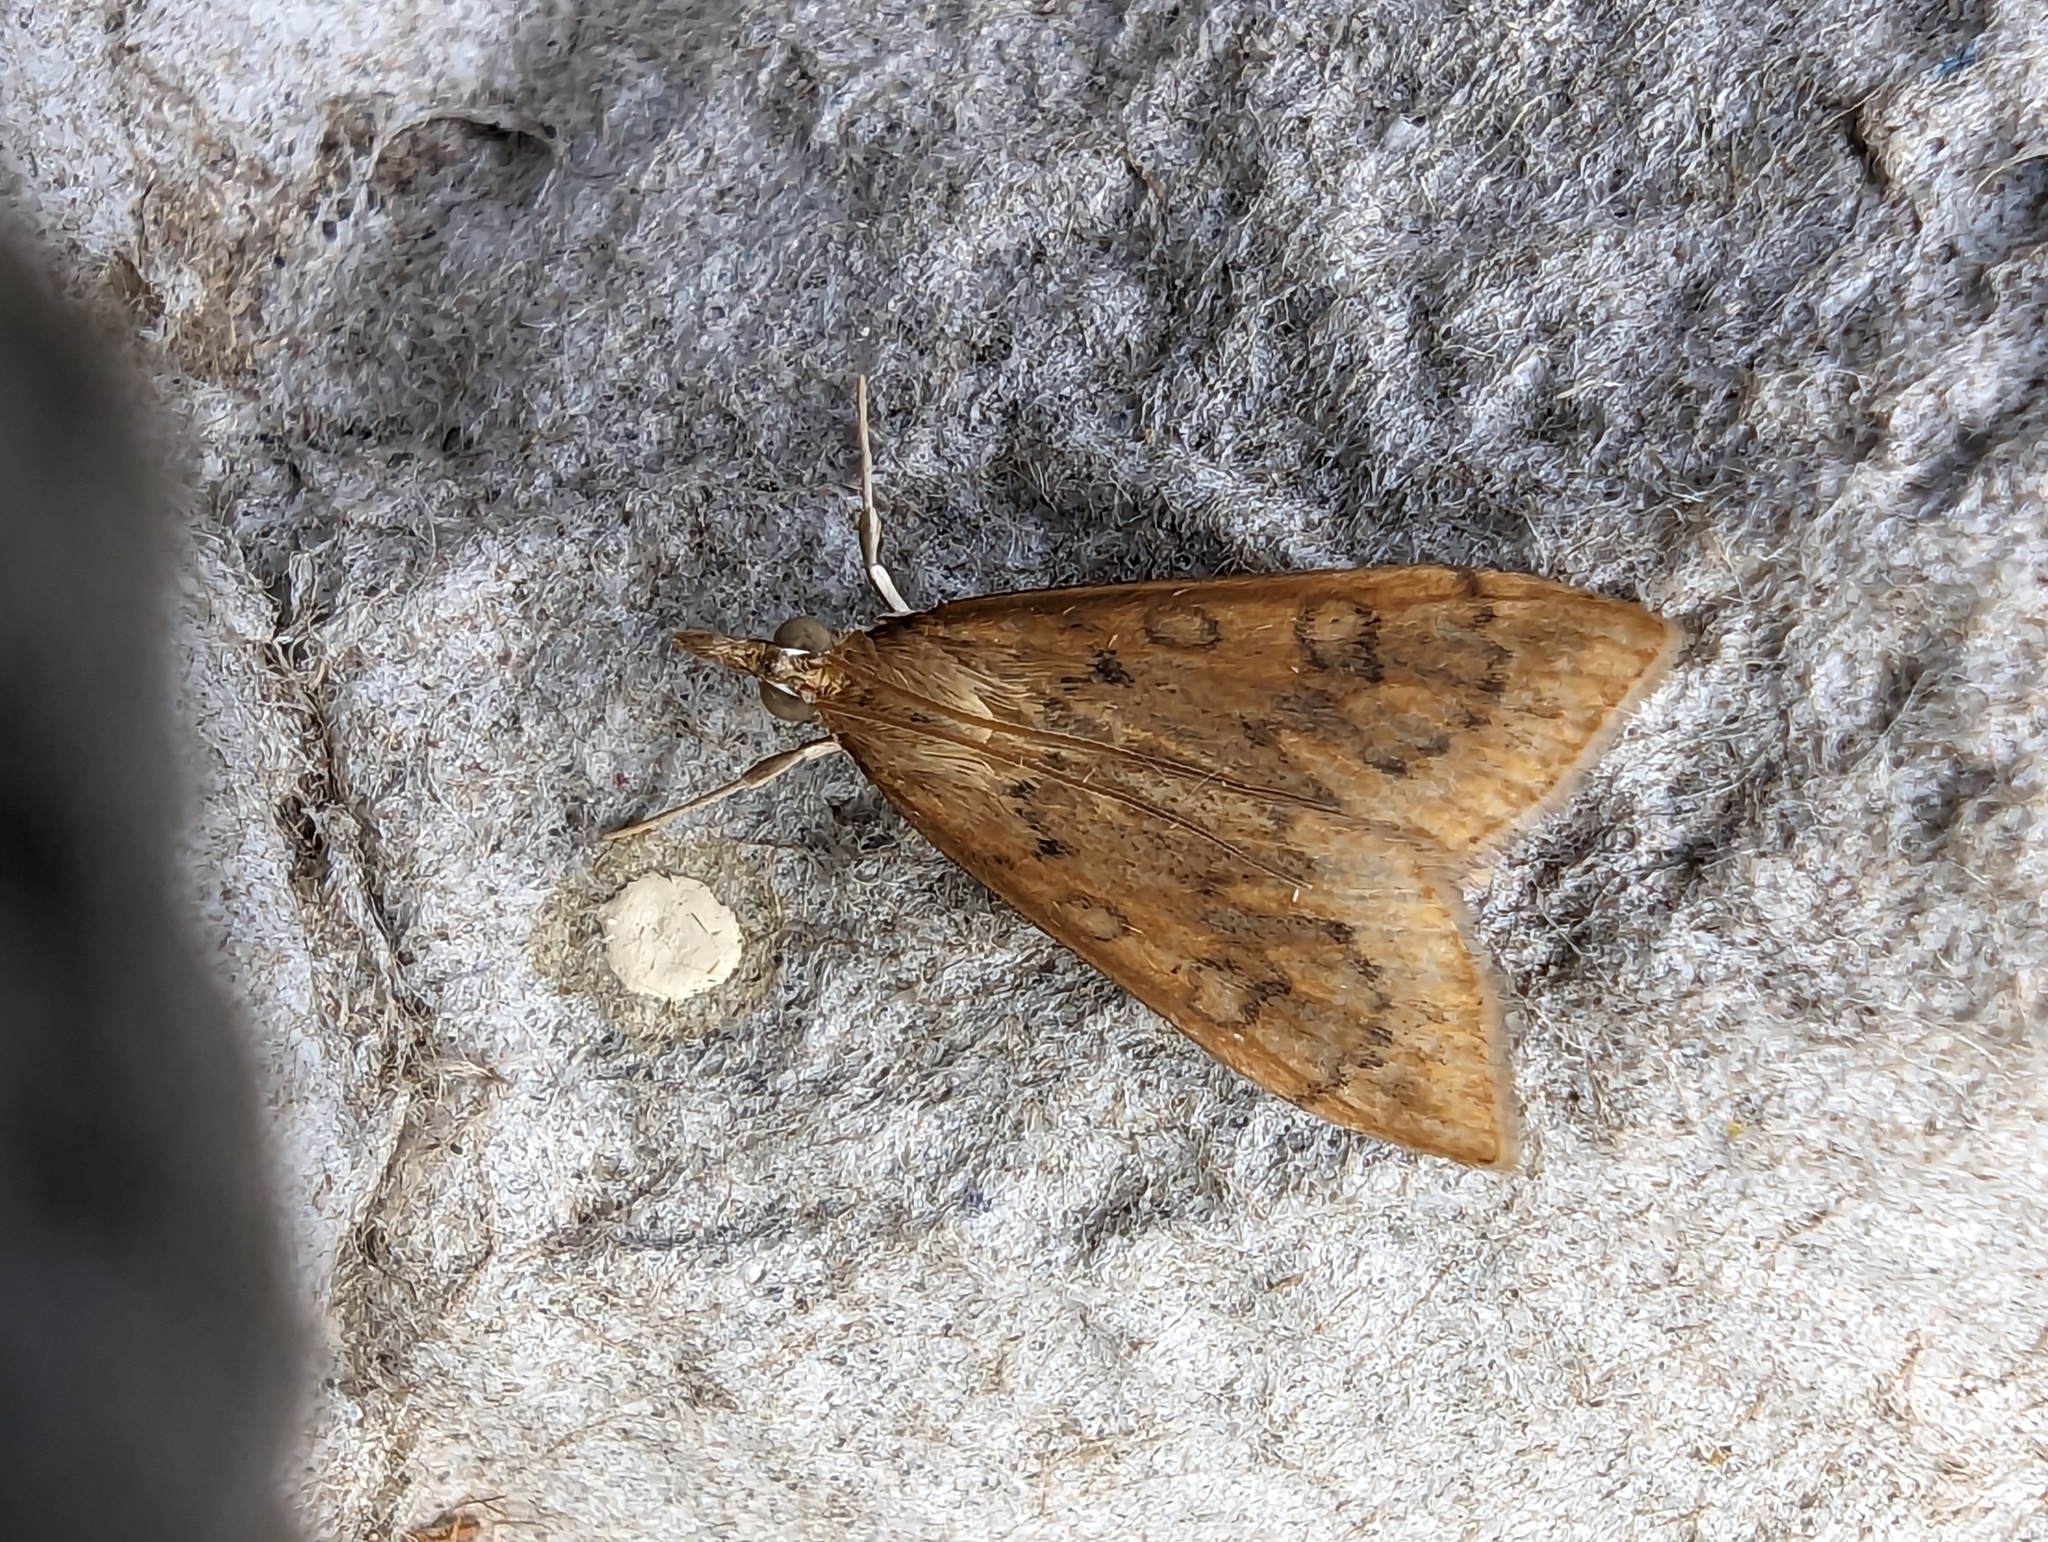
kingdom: Animalia
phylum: Arthropoda
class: Insecta
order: Lepidoptera
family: Crambidae
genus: Udea
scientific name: Udea ferrugalis
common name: Rusty dot
